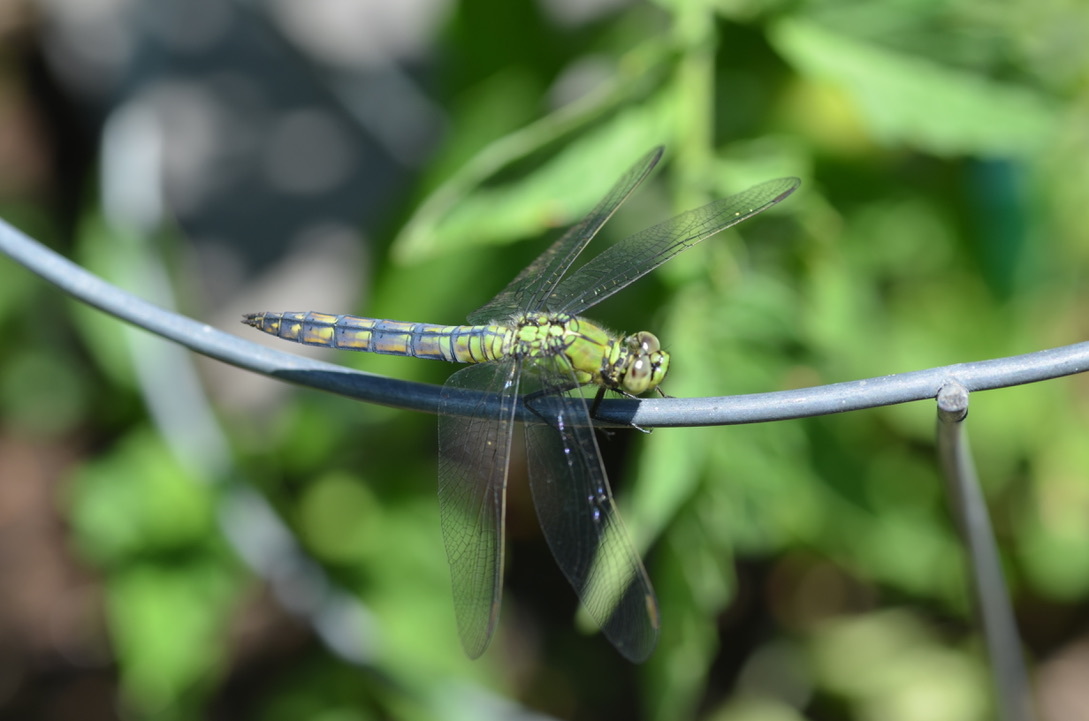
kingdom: Animalia
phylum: Arthropoda
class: Insecta
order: Odonata
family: Libellulidae
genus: Erythemis
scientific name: Erythemis collocata
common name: Western pondhawk
